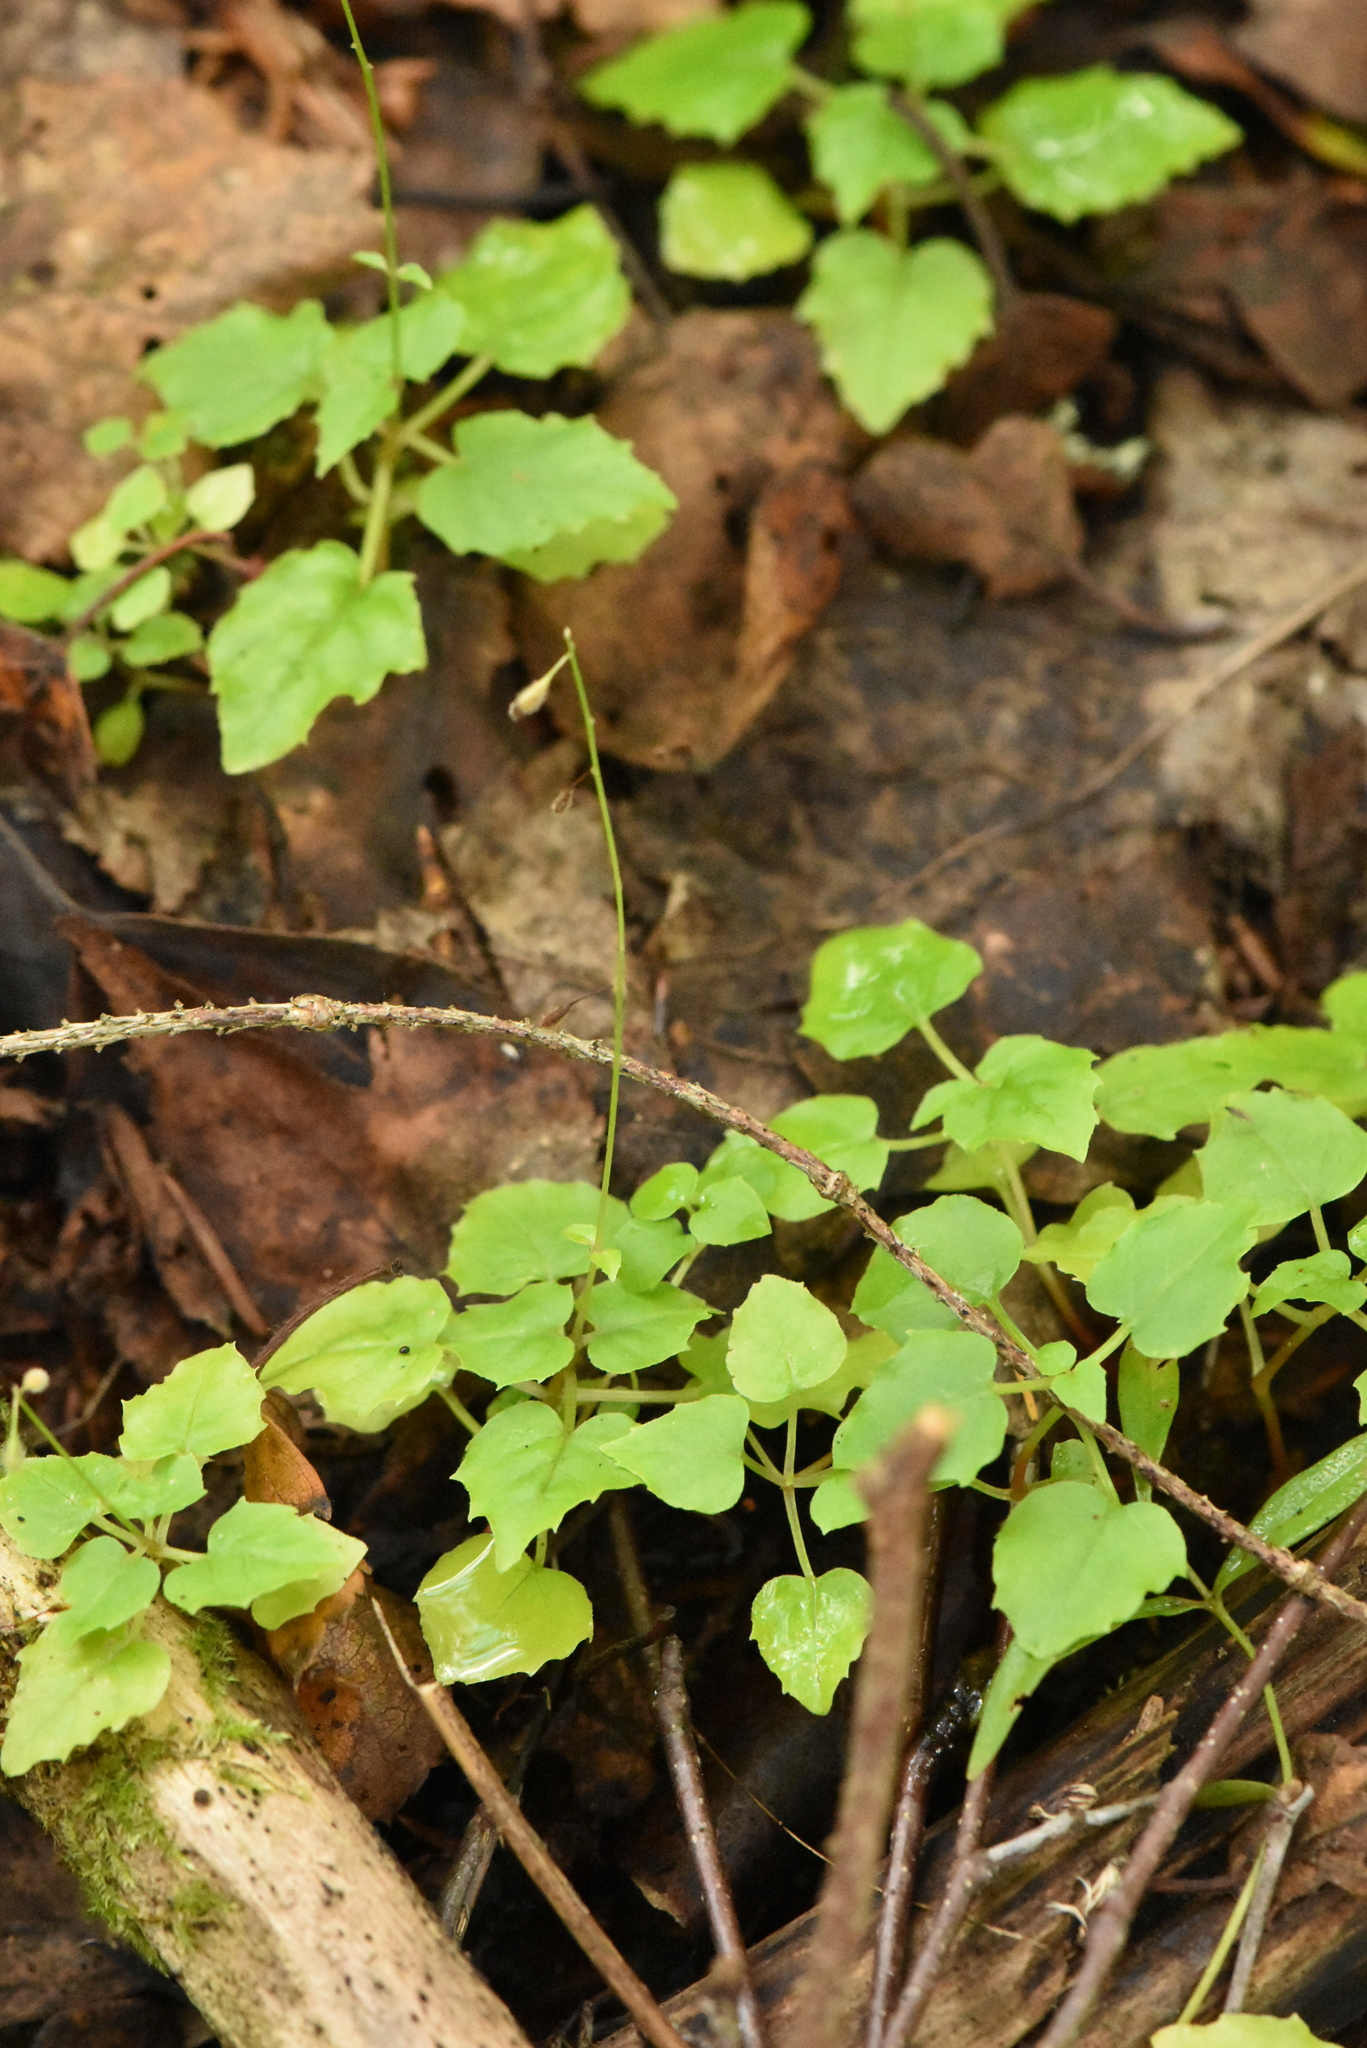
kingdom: Plantae
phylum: Tracheophyta
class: Magnoliopsida
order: Myrtales
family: Onagraceae
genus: Circaea
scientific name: Circaea alpina
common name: Alpine enchanter's-nightshade
